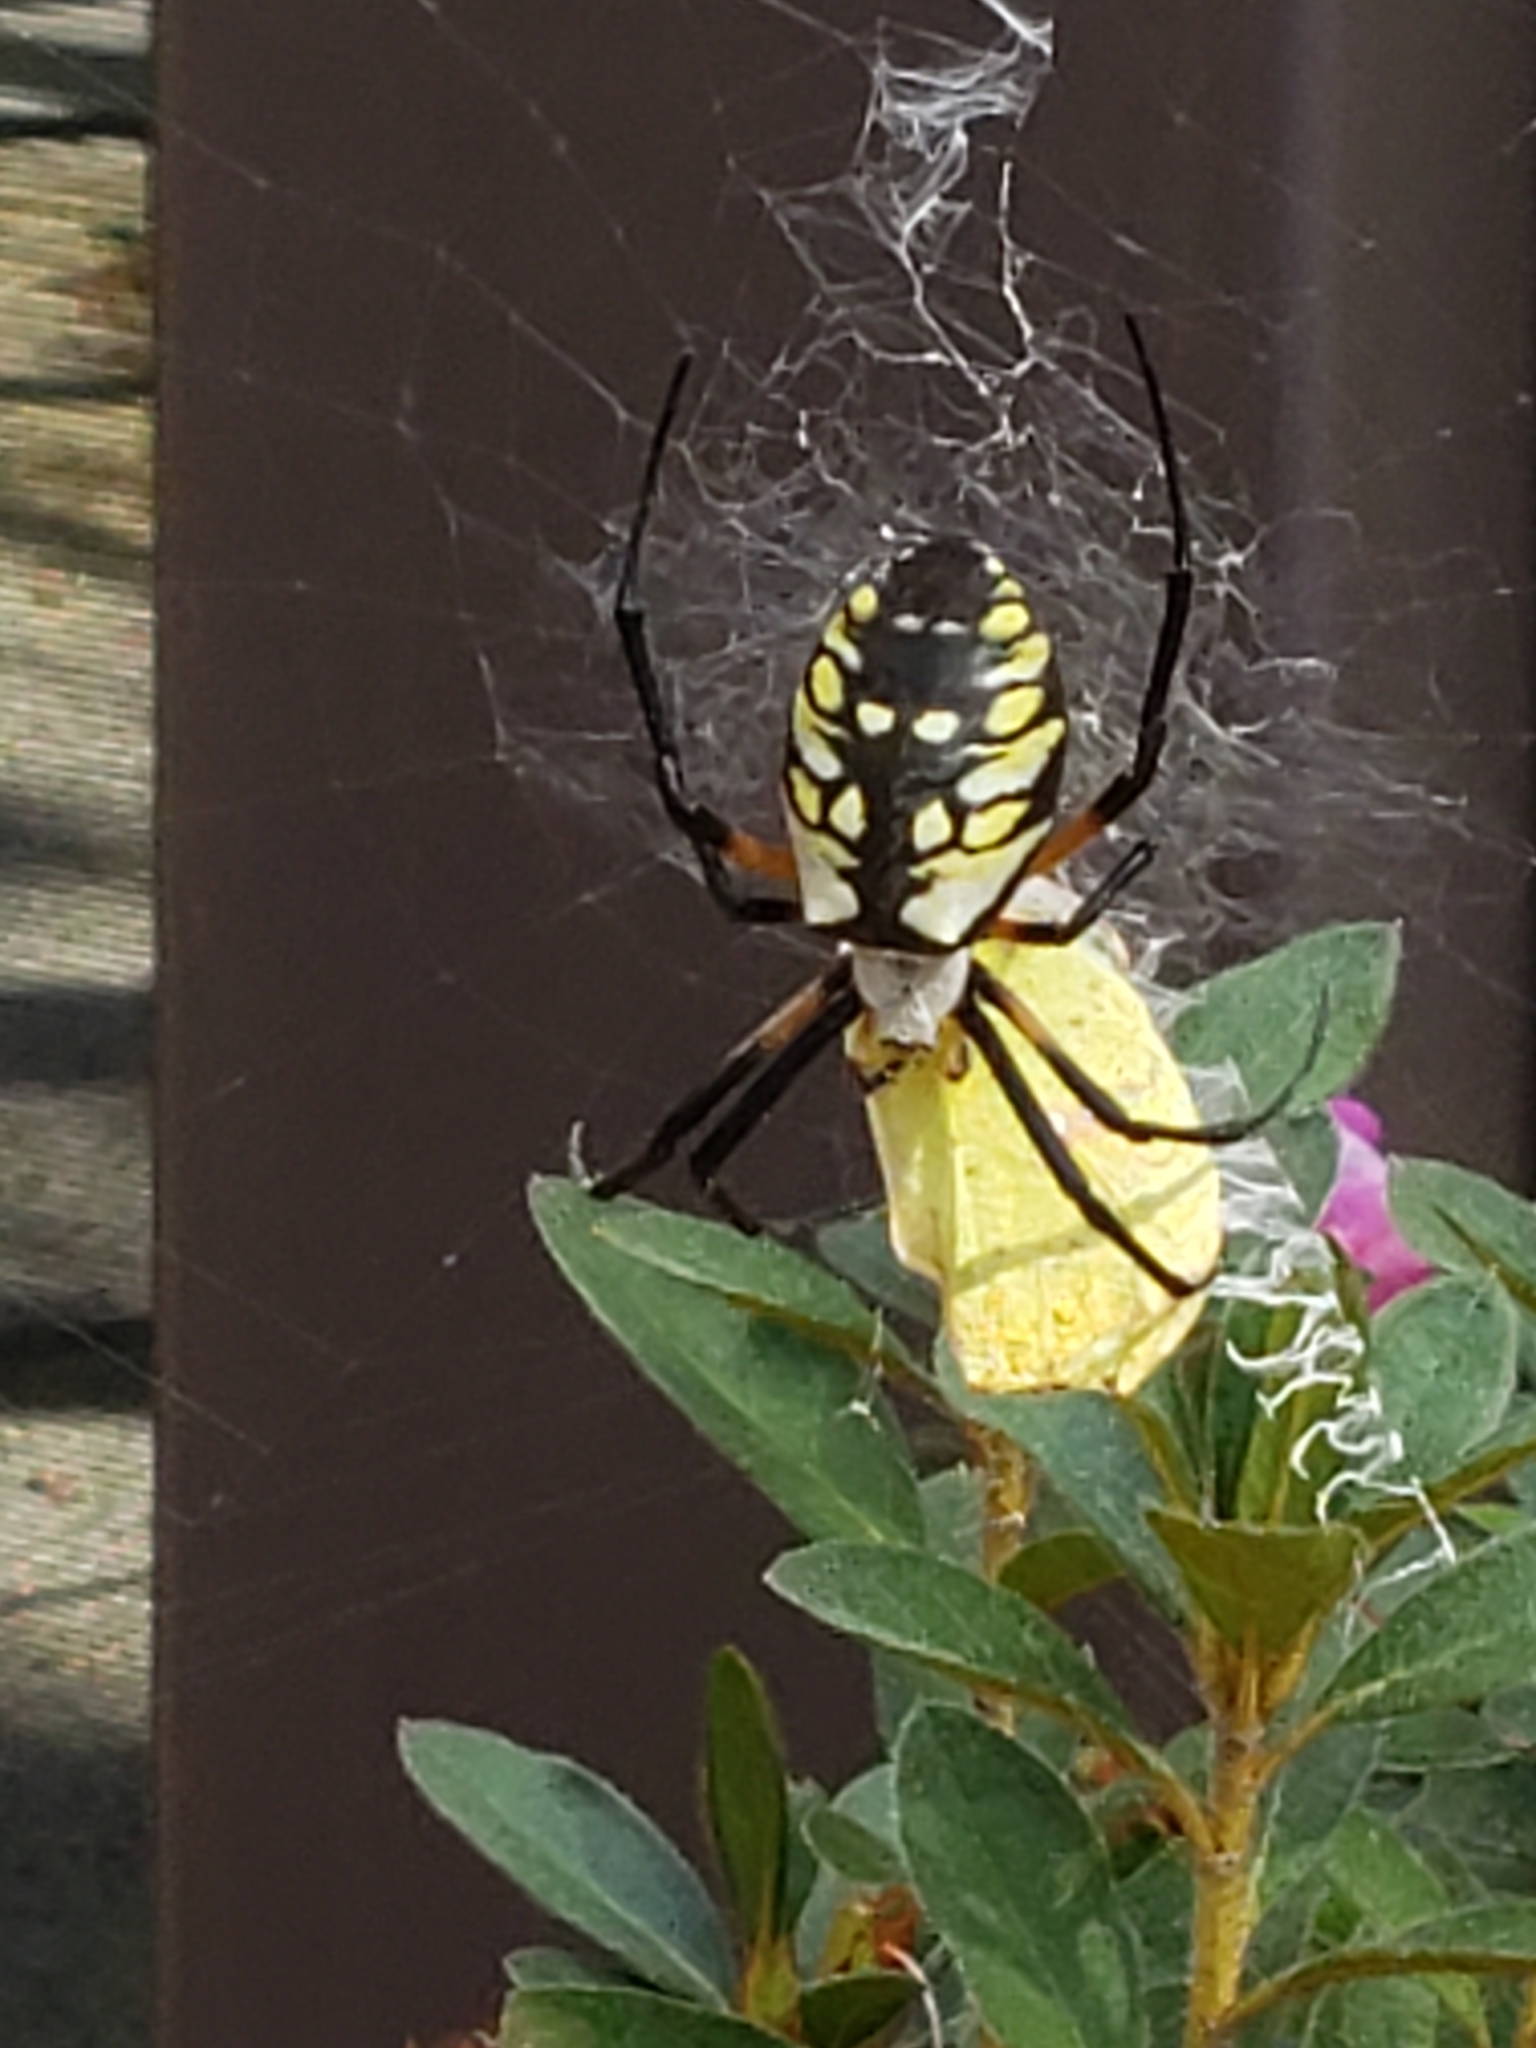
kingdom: Animalia
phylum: Arthropoda
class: Arachnida
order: Araneae
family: Araneidae
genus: Argiope
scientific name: Argiope aurantia
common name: Orb weavers
